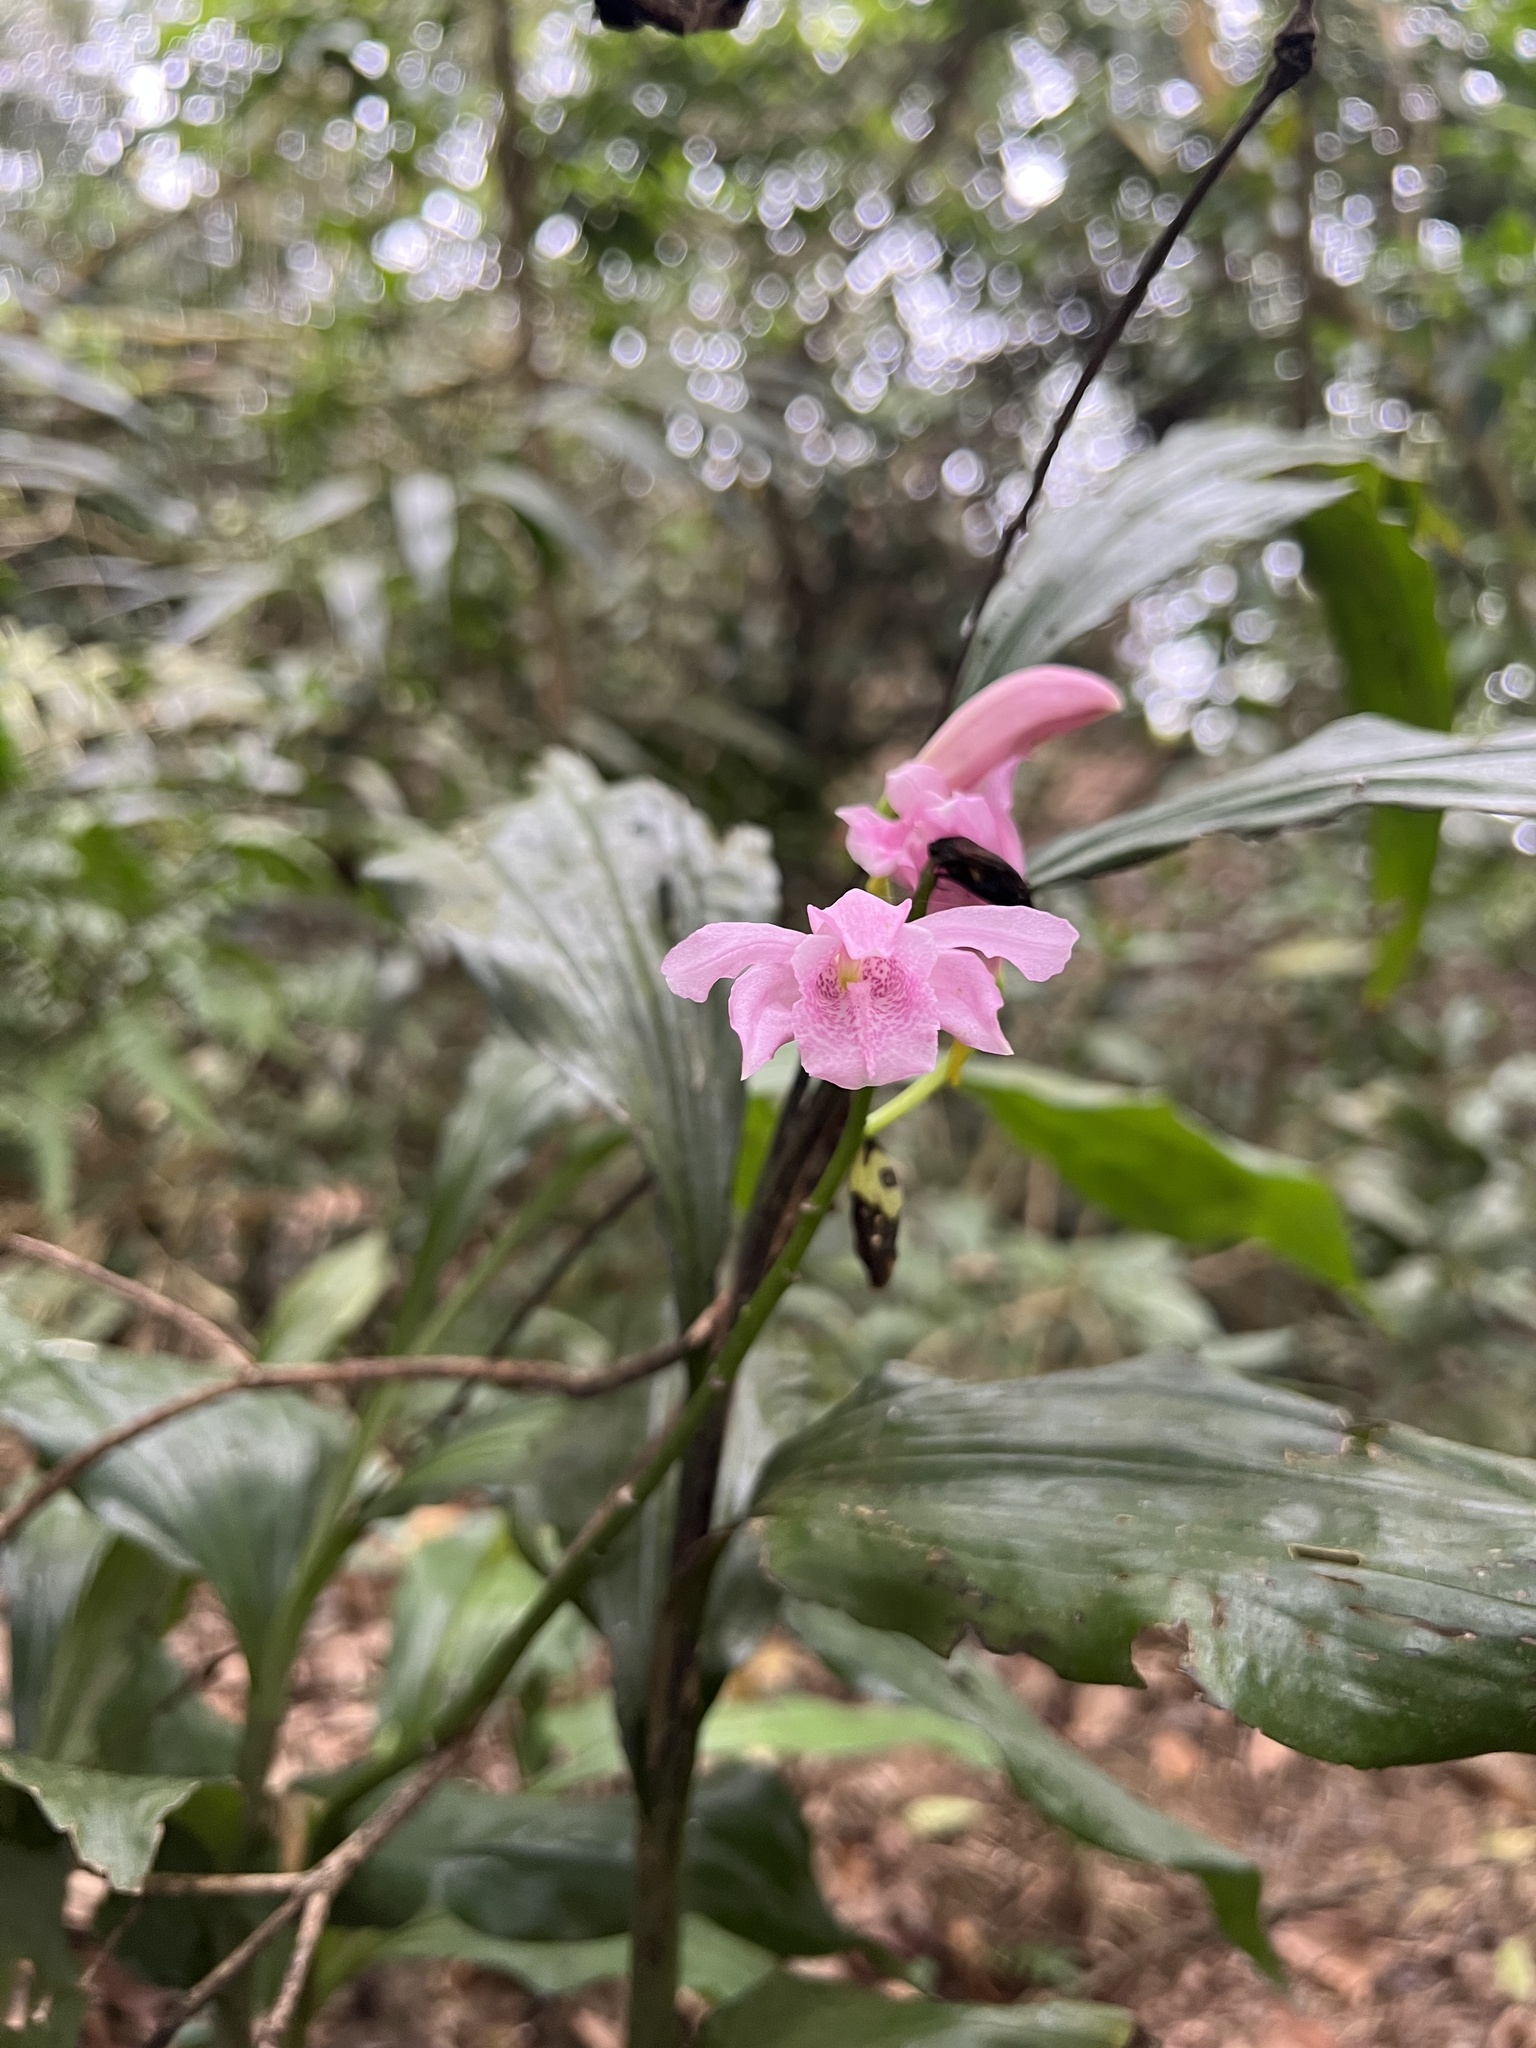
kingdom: Plantae
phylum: Tracheophyta
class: Liliopsida
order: Asparagales
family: Orchidaceae
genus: Calanthe
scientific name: Calanthe mishmensis
